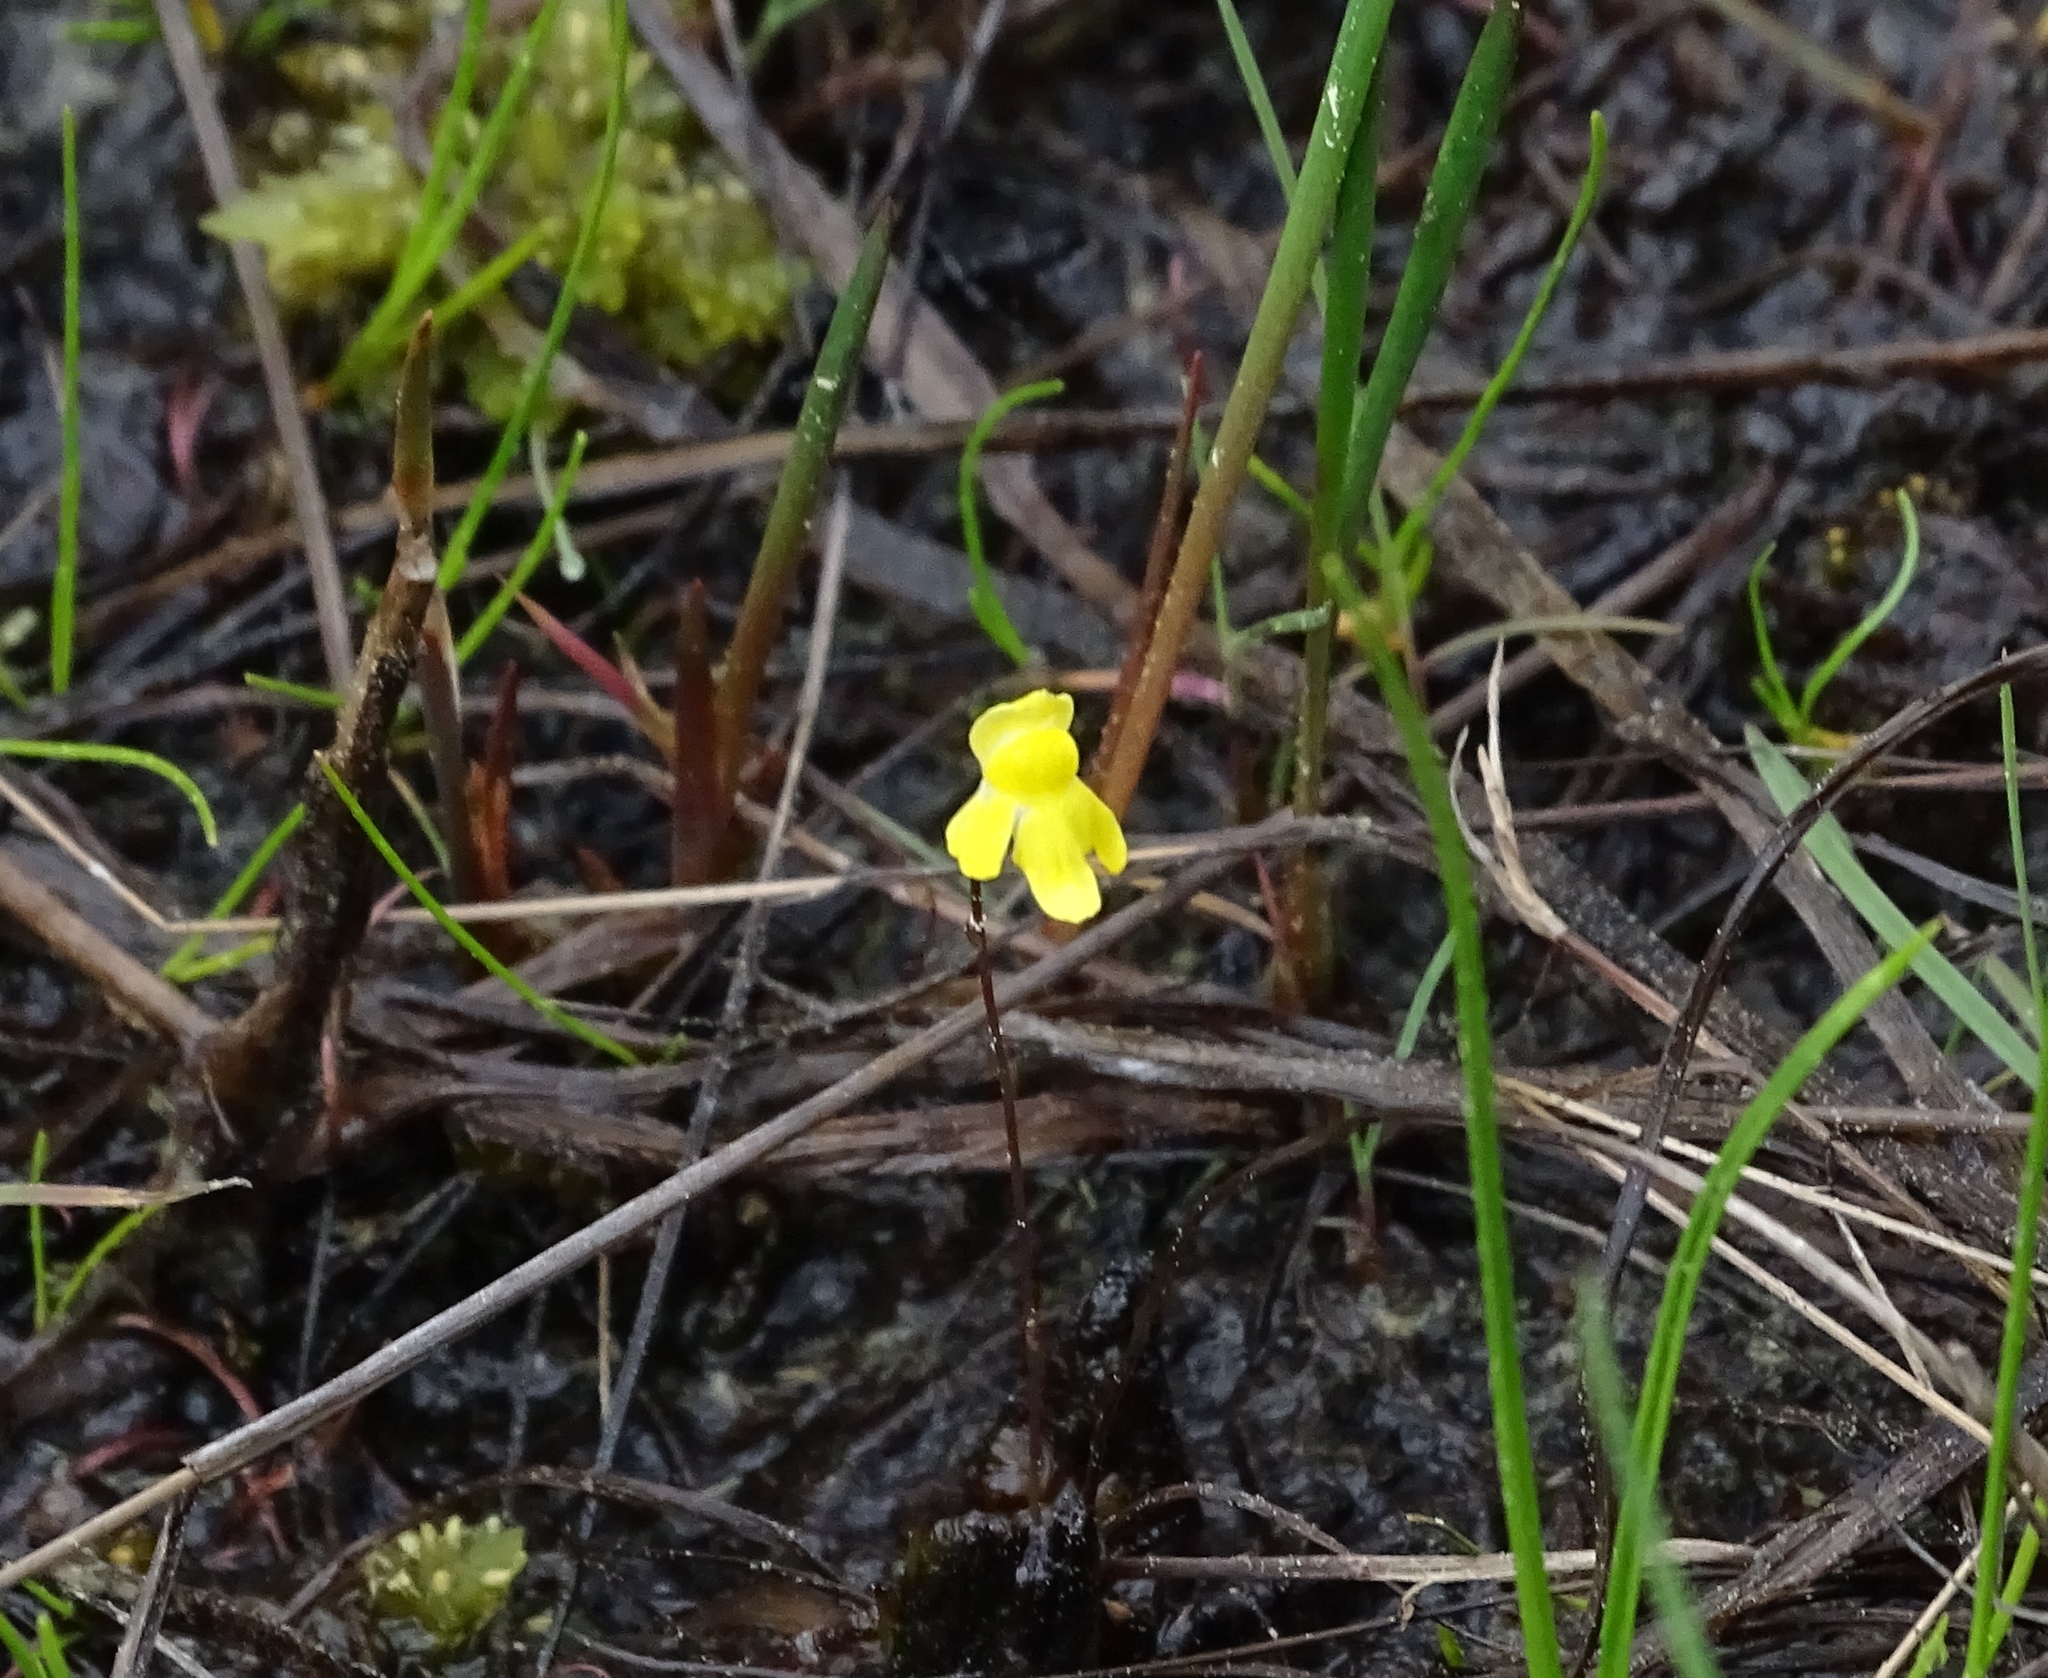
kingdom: Plantae
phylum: Tracheophyta
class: Magnoliopsida
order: Lamiales
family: Lentibulariaceae
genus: Utricularia
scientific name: Utricularia subulata
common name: Tiny bladderwort
